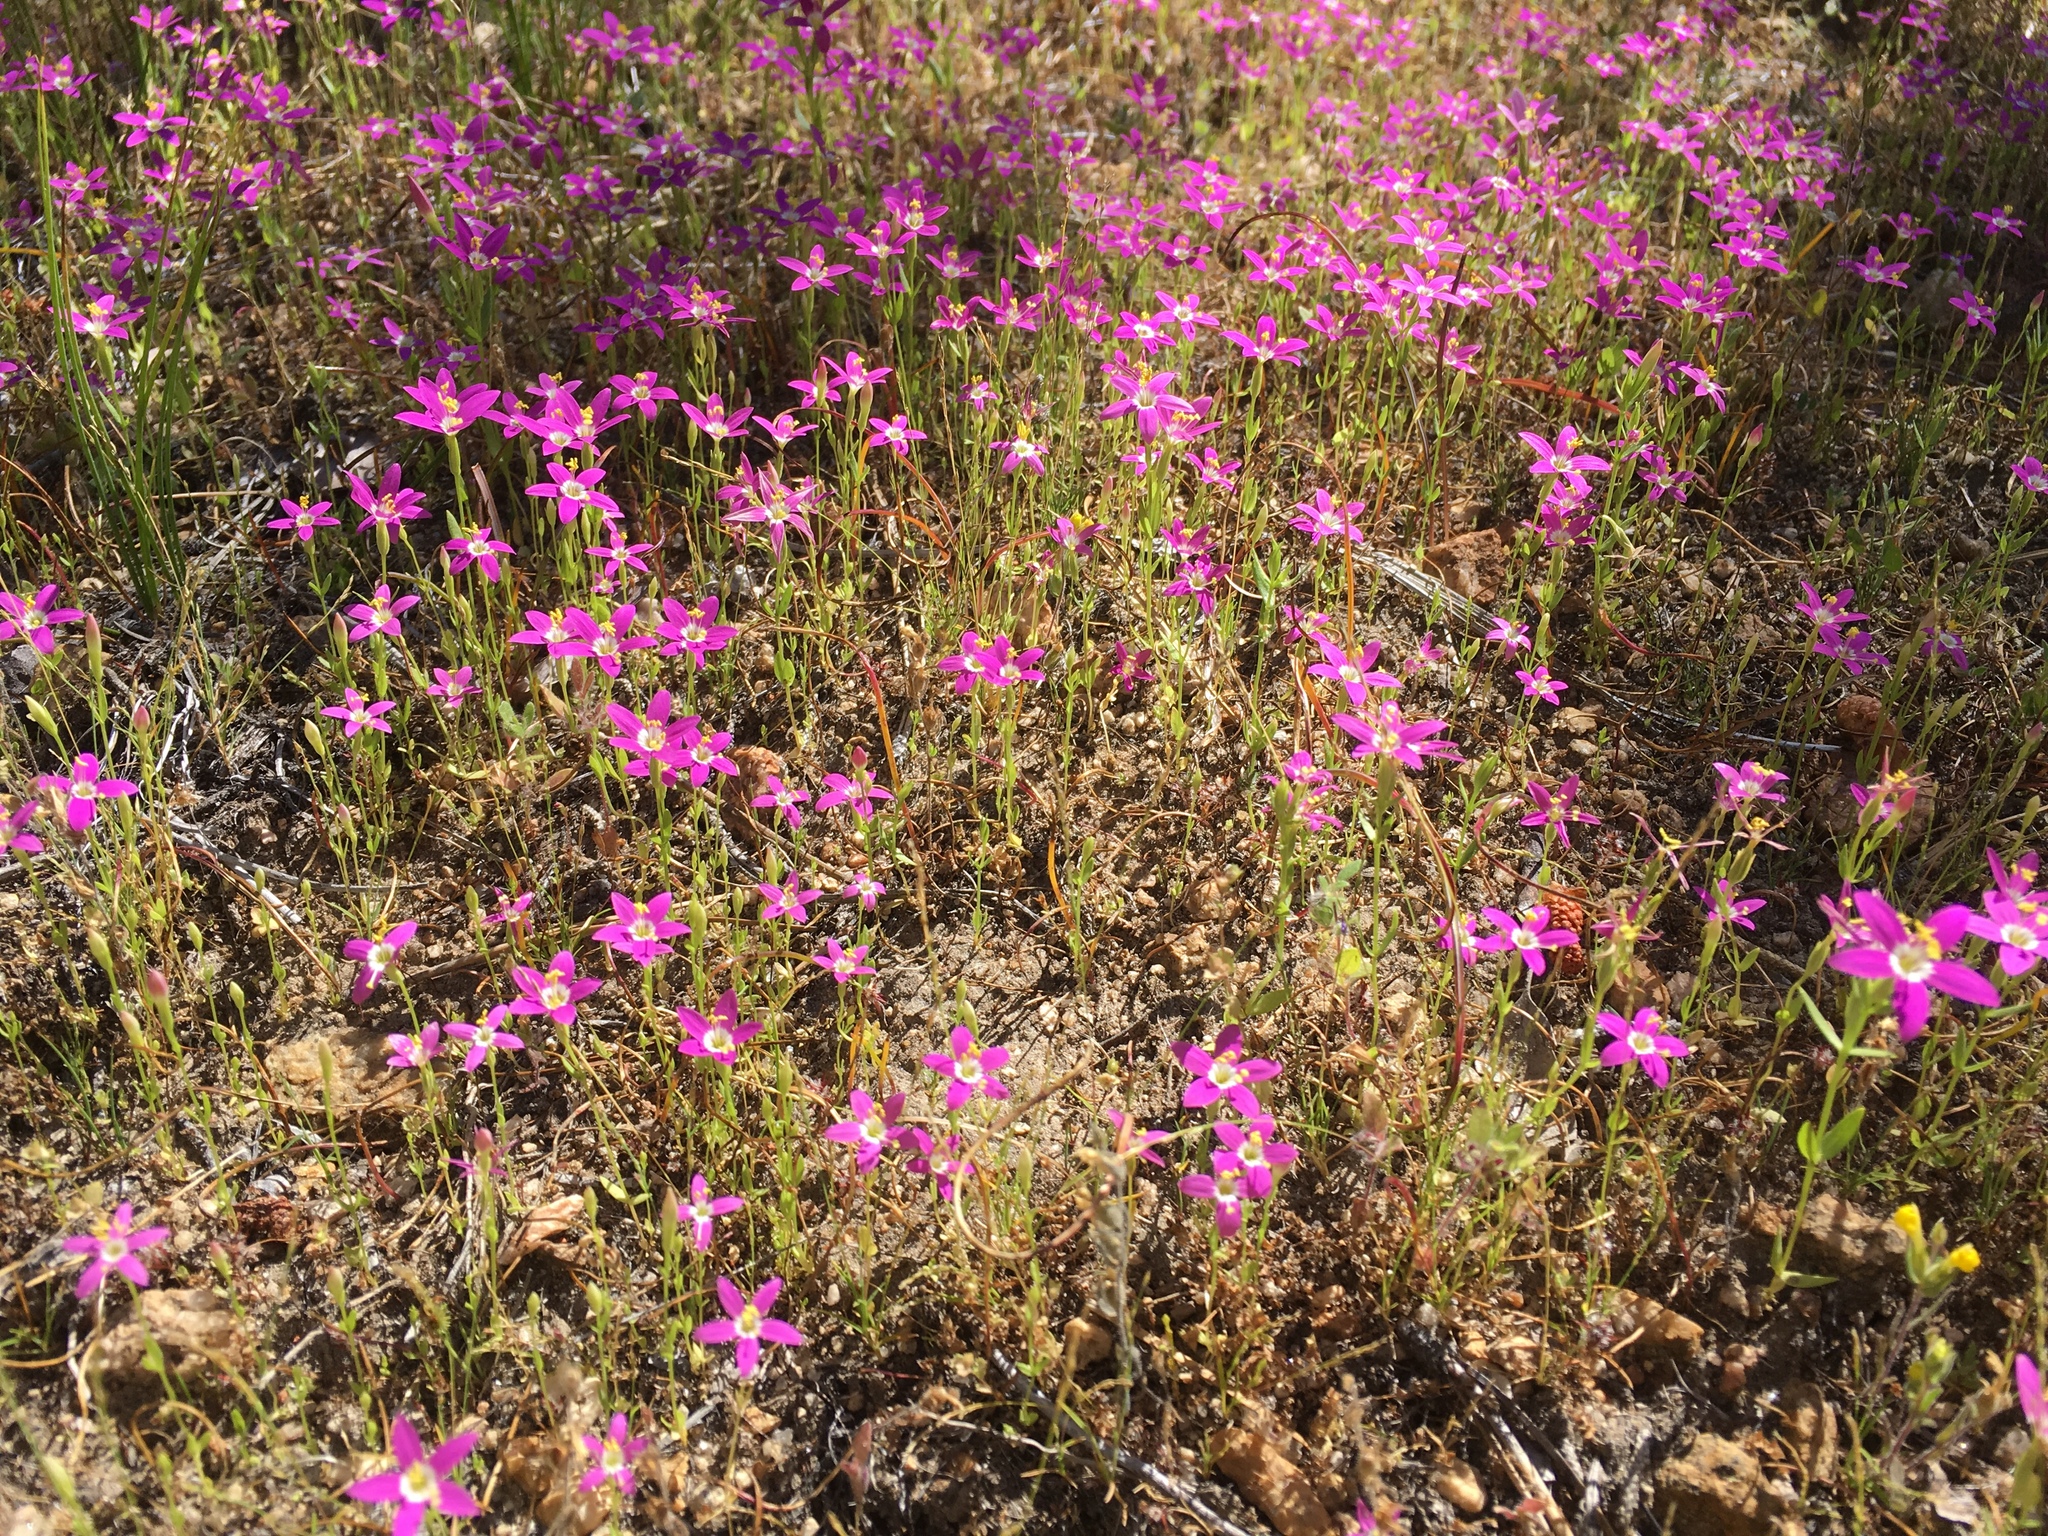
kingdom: Plantae
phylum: Tracheophyta
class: Magnoliopsida
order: Gentianales
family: Gentianaceae
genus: Zeltnera
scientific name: Zeltnera venusta
